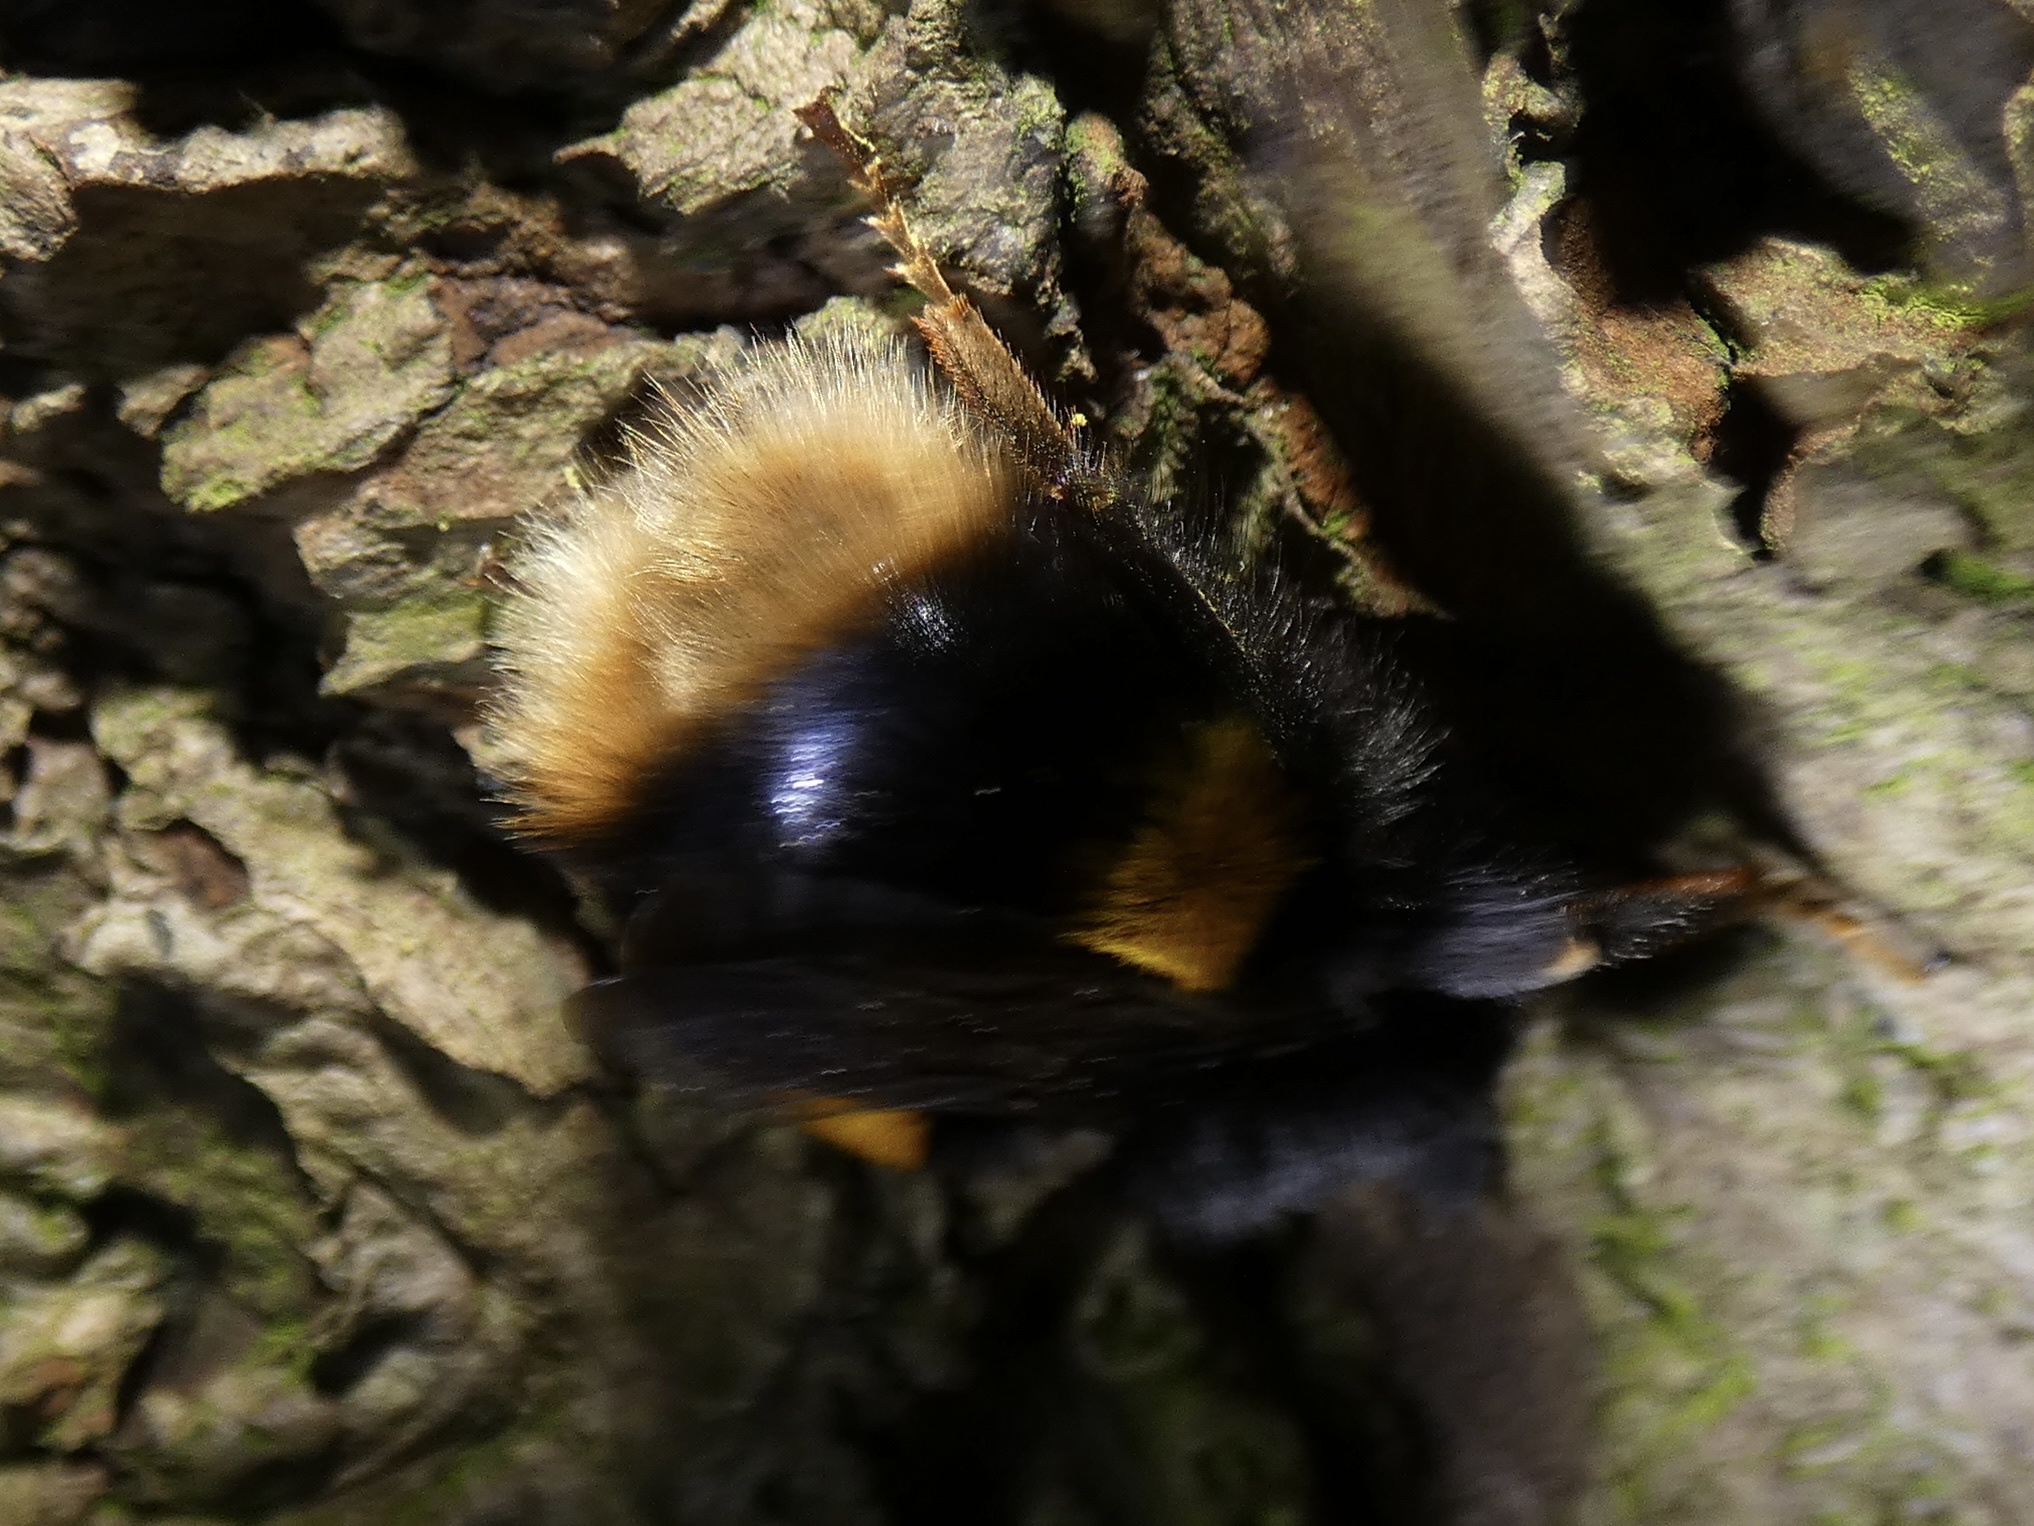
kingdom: Animalia
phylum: Arthropoda
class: Insecta
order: Hymenoptera
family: Apidae
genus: Bombus
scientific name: Bombus terrestris
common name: Buff-tailed bumblebee
